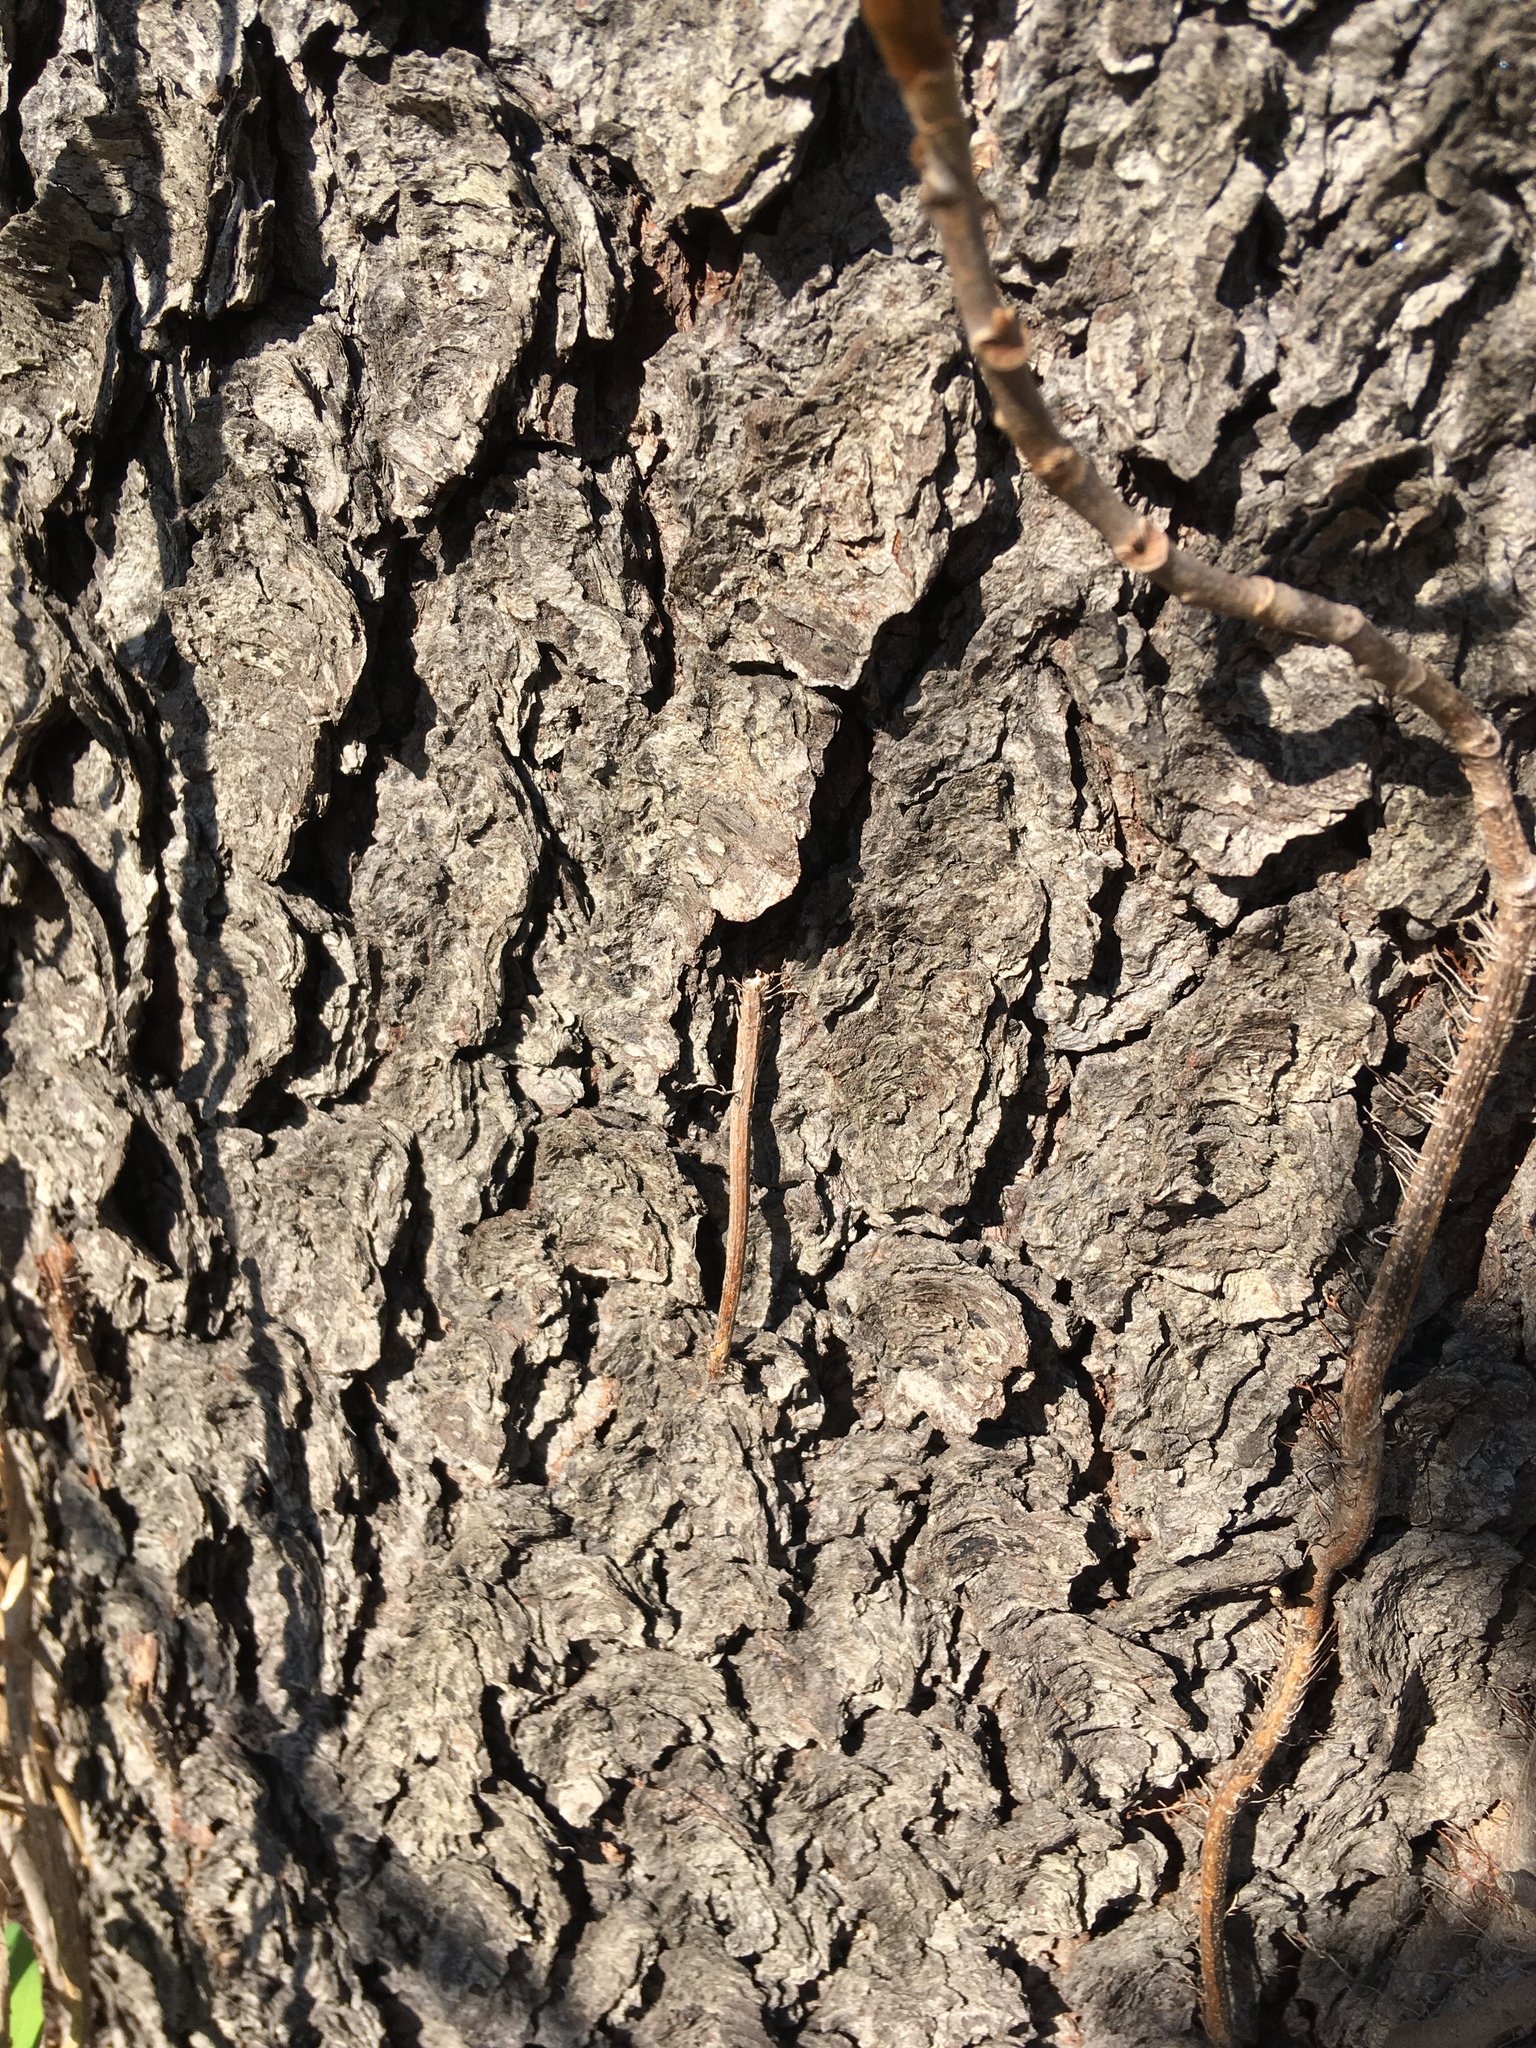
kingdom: Plantae
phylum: Tracheophyta
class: Magnoliopsida
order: Rosales
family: Rosaceae
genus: Prunus
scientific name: Prunus serotina
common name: Black cherry
